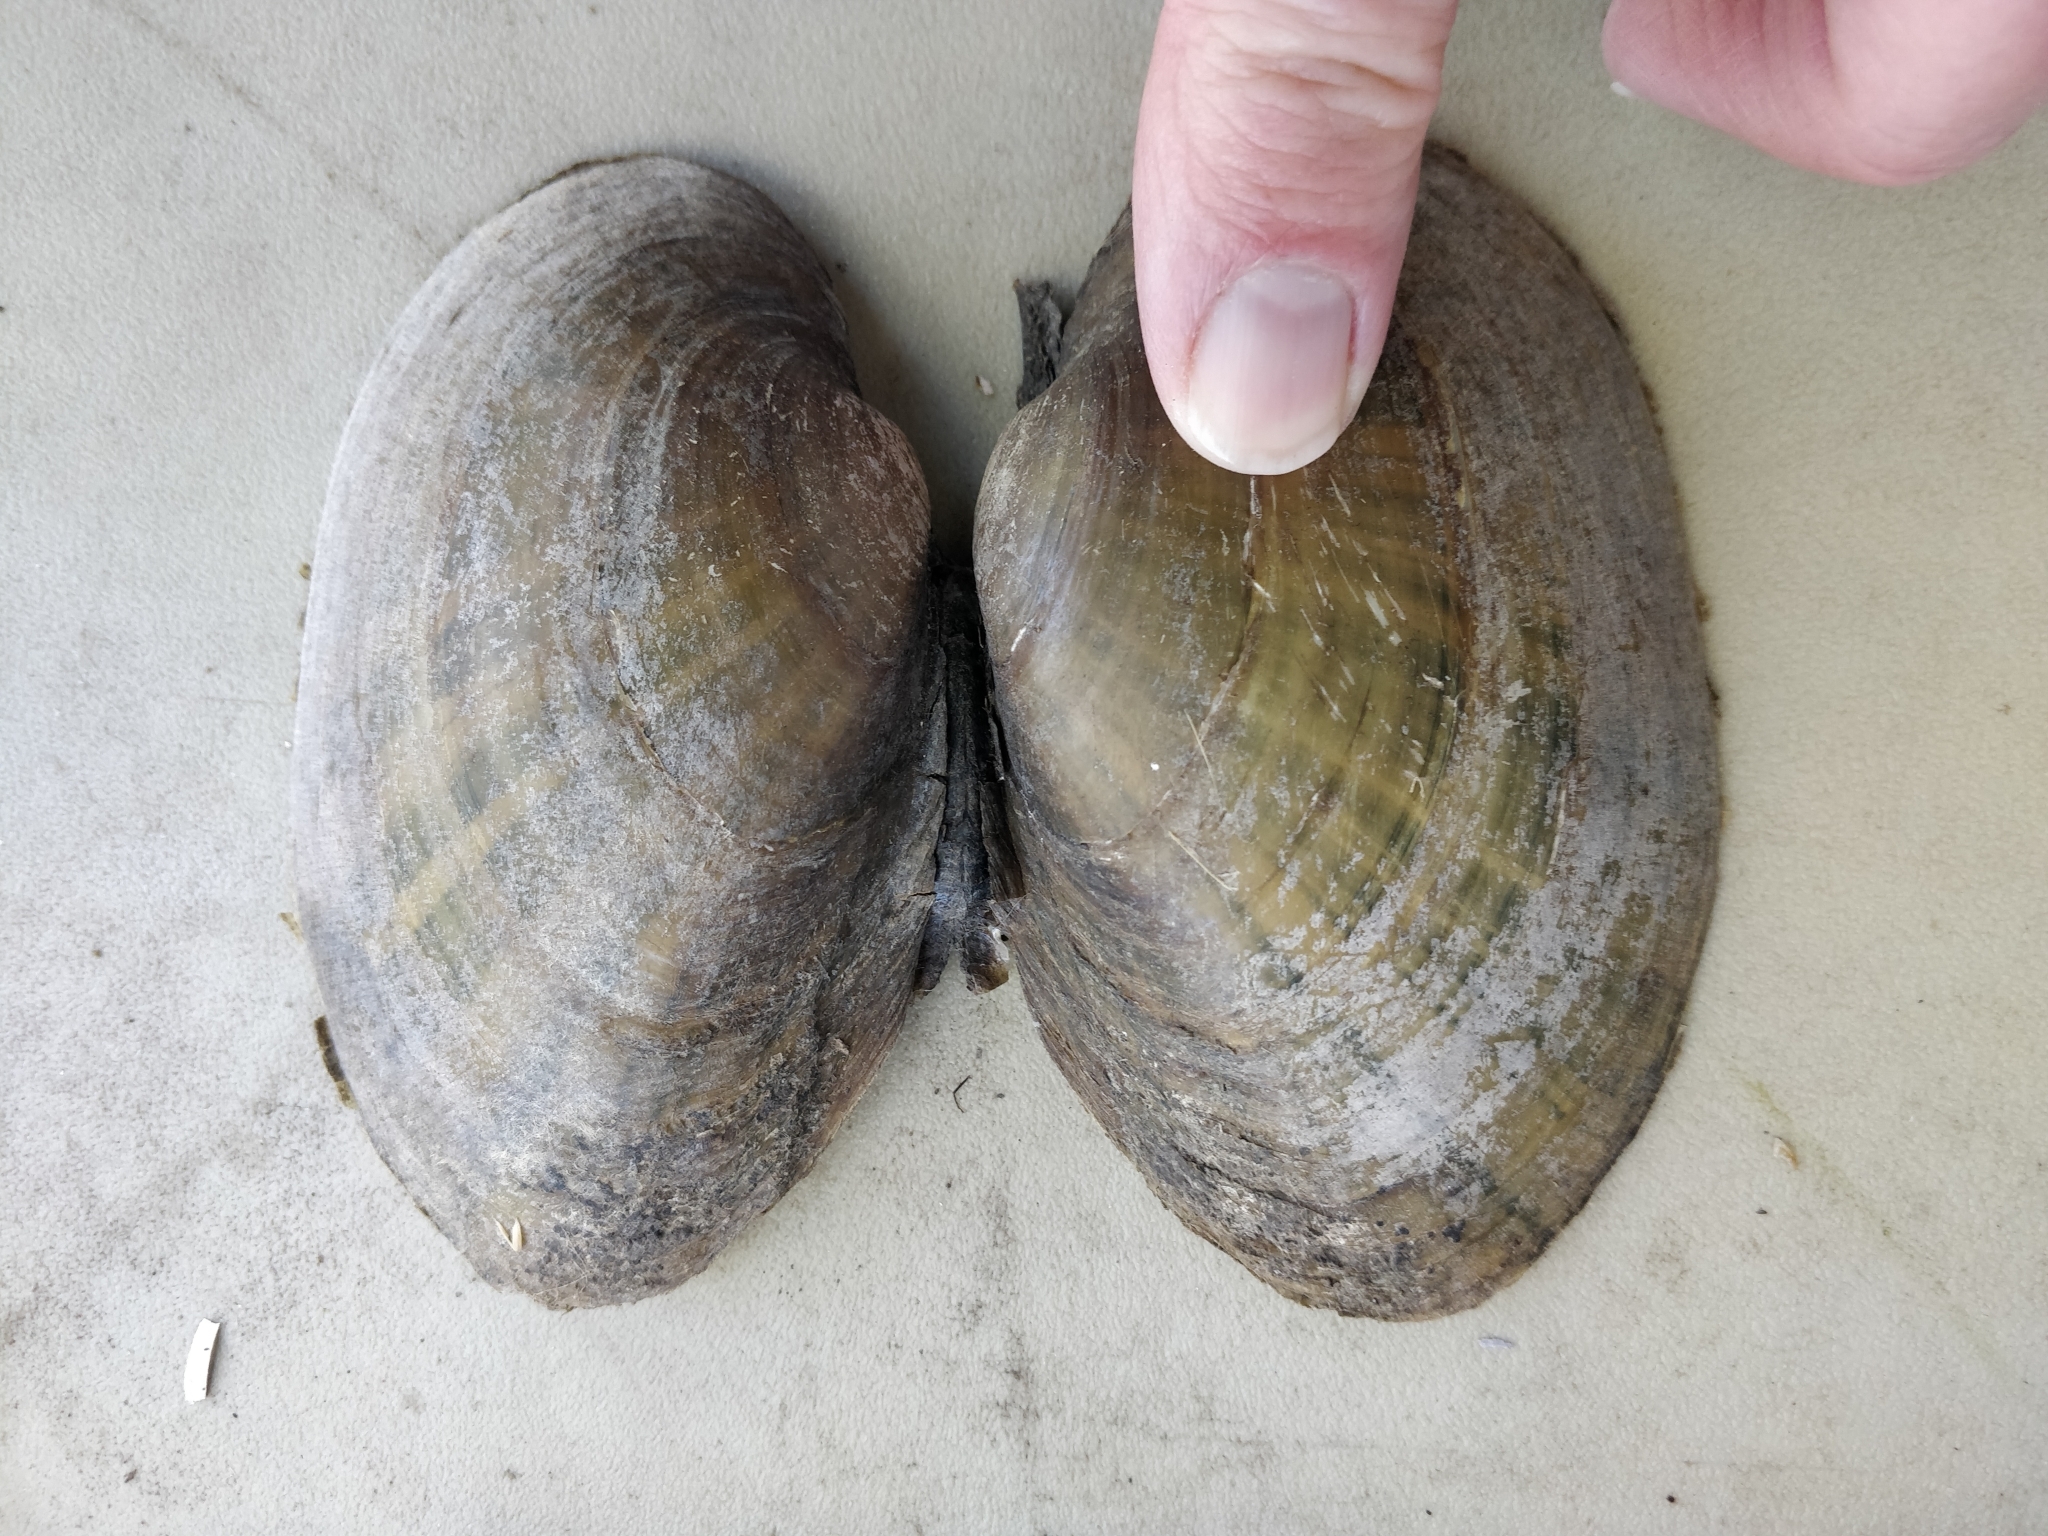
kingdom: Animalia
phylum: Mollusca
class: Bivalvia
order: Unionida
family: Unionidae
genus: Lampsilis
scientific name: Lampsilis cardium
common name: Plain pocketbook
